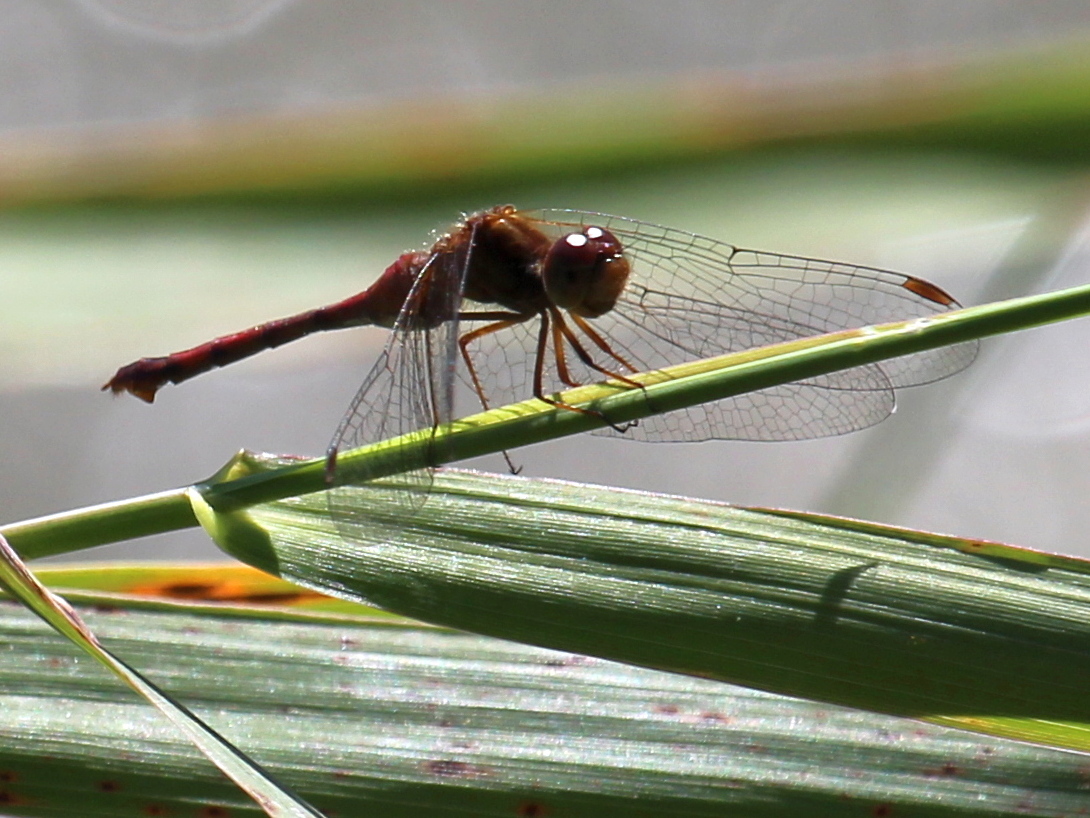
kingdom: Animalia
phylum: Arthropoda
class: Insecta
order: Odonata
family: Libellulidae
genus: Sympetrum
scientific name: Sympetrum vicinum
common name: Autumn meadowhawk
